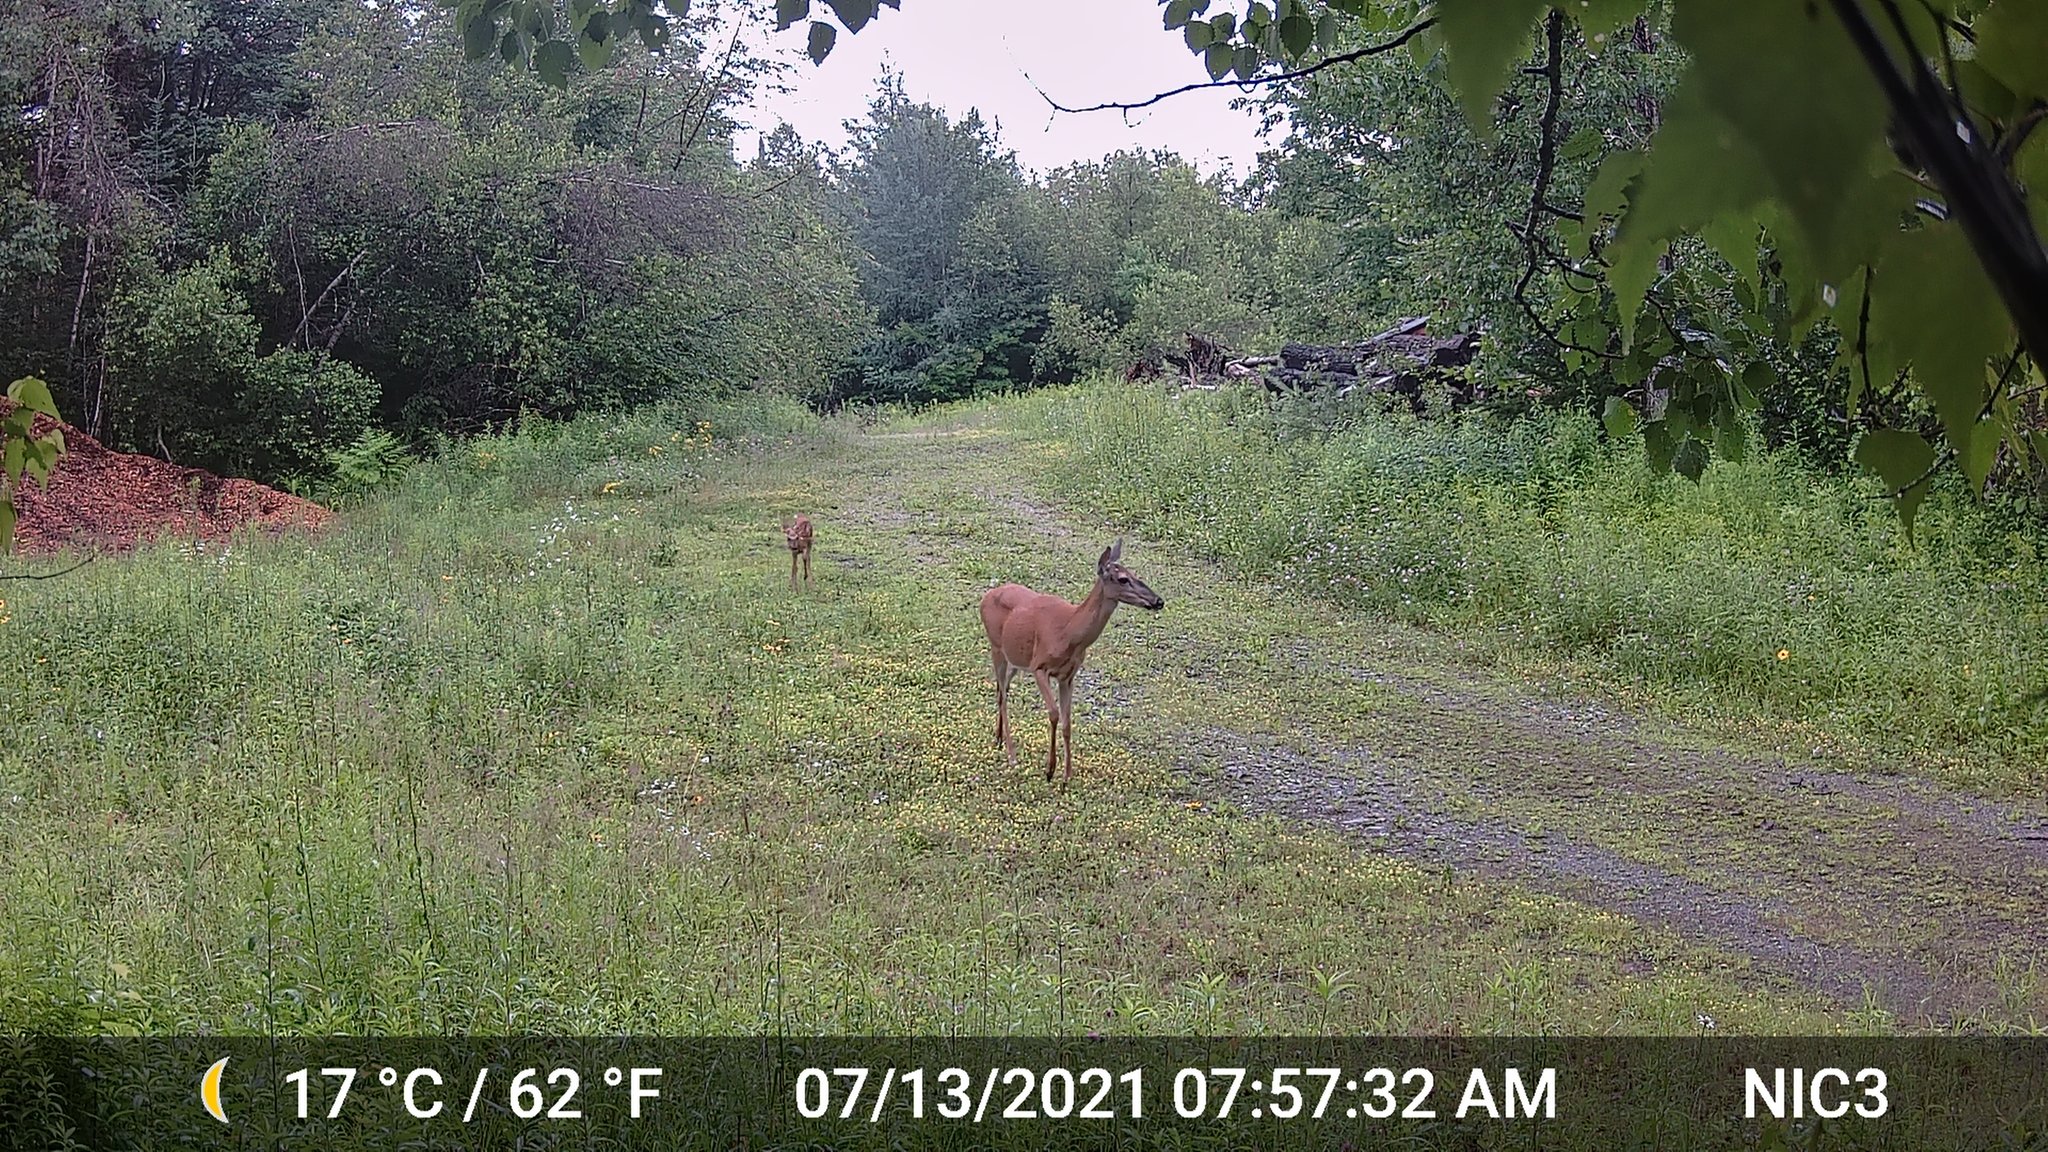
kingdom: Animalia
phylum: Chordata
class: Mammalia
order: Artiodactyla
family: Cervidae
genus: Odocoileus
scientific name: Odocoileus virginianus
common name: White-tailed deer
